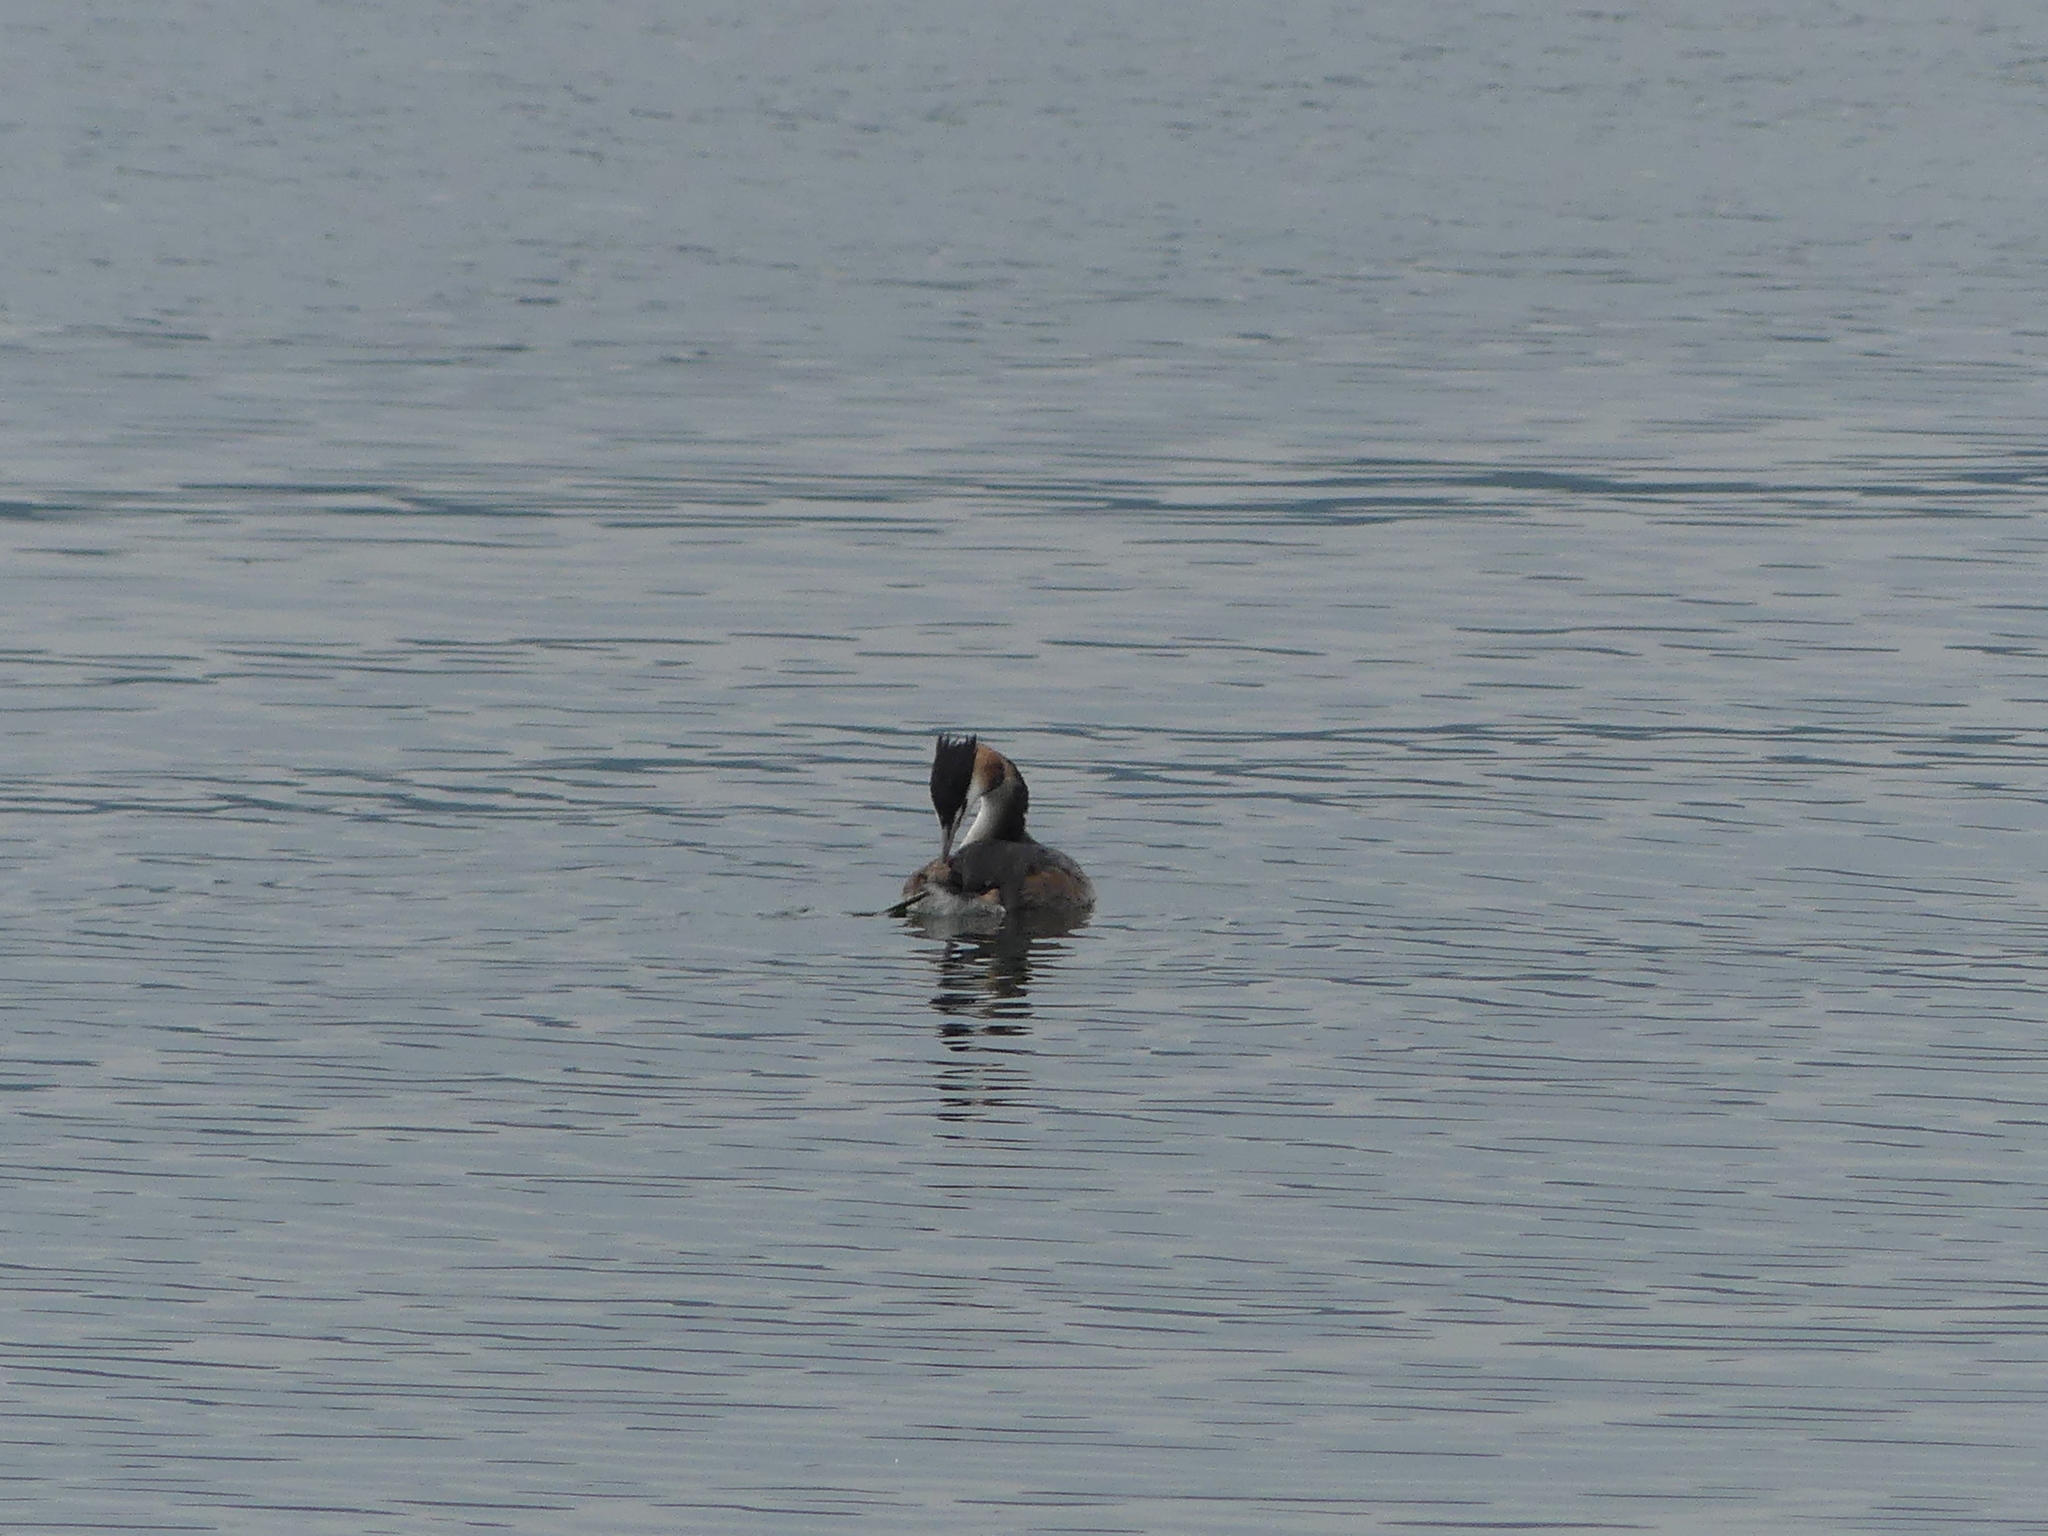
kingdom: Animalia
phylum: Chordata
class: Aves
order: Podicipediformes
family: Podicipedidae
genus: Podiceps
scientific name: Podiceps cristatus
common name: Great crested grebe
